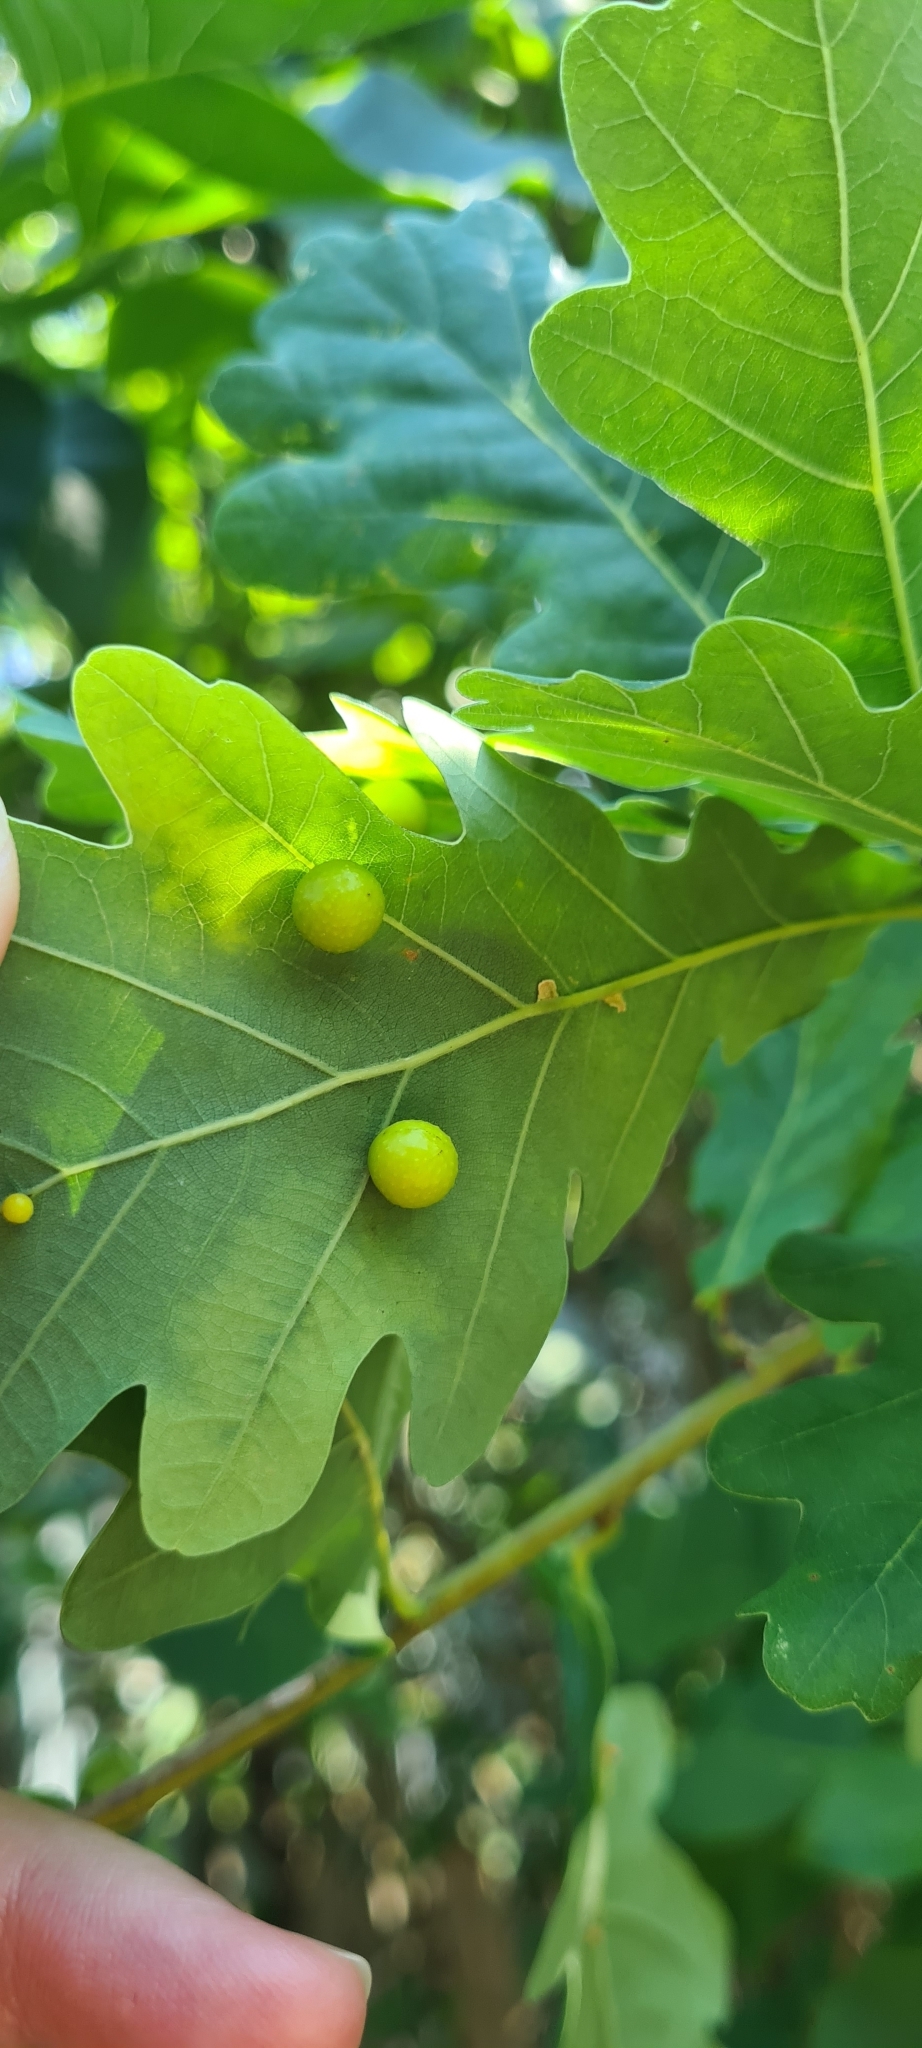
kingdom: Animalia
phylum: Arthropoda
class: Insecta
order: Hymenoptera
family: Cynipidae
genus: Cynips
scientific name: Cynips quercusfolii
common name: Cherry gall
